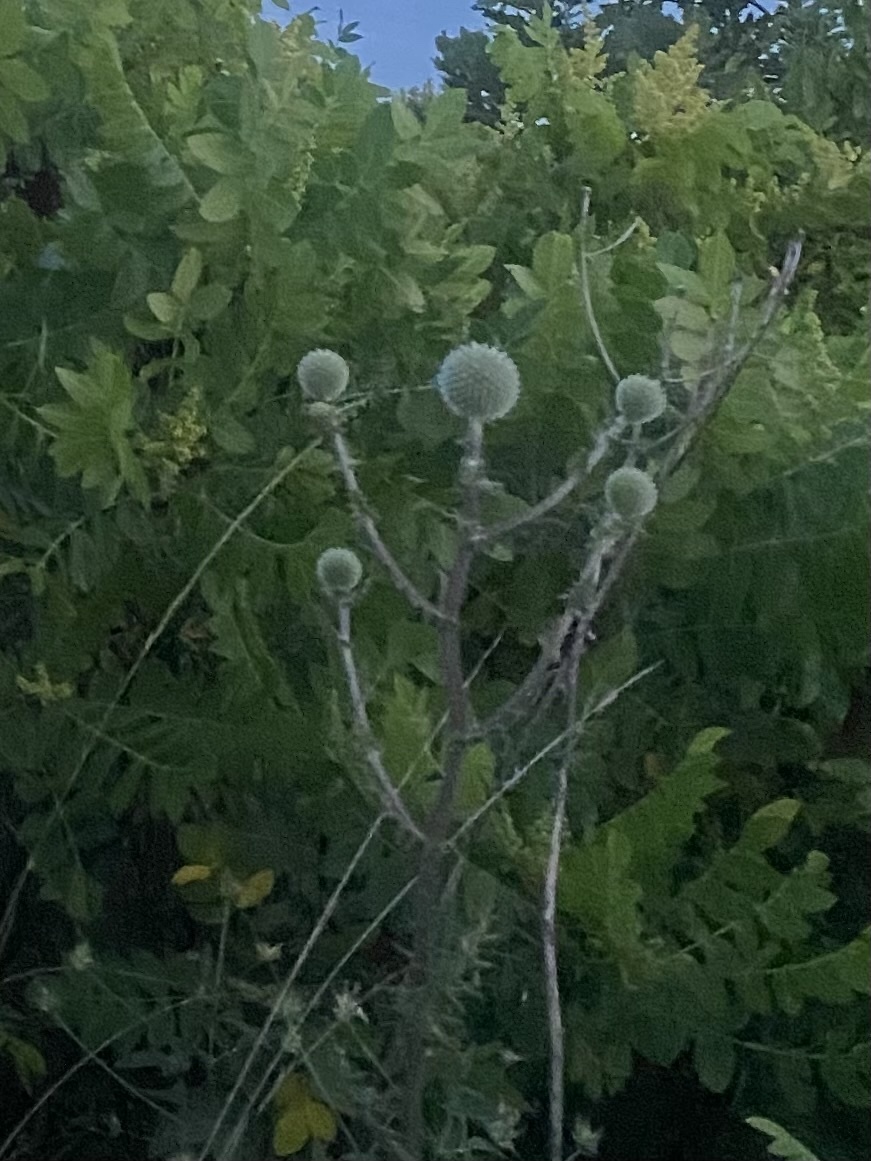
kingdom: Plantae
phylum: Tracheophyta
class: Magnoliopsida
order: Asterales
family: Asteraceae
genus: Echinops
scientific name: Echinops sphaerocephalus
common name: Glandular globe-thistle
